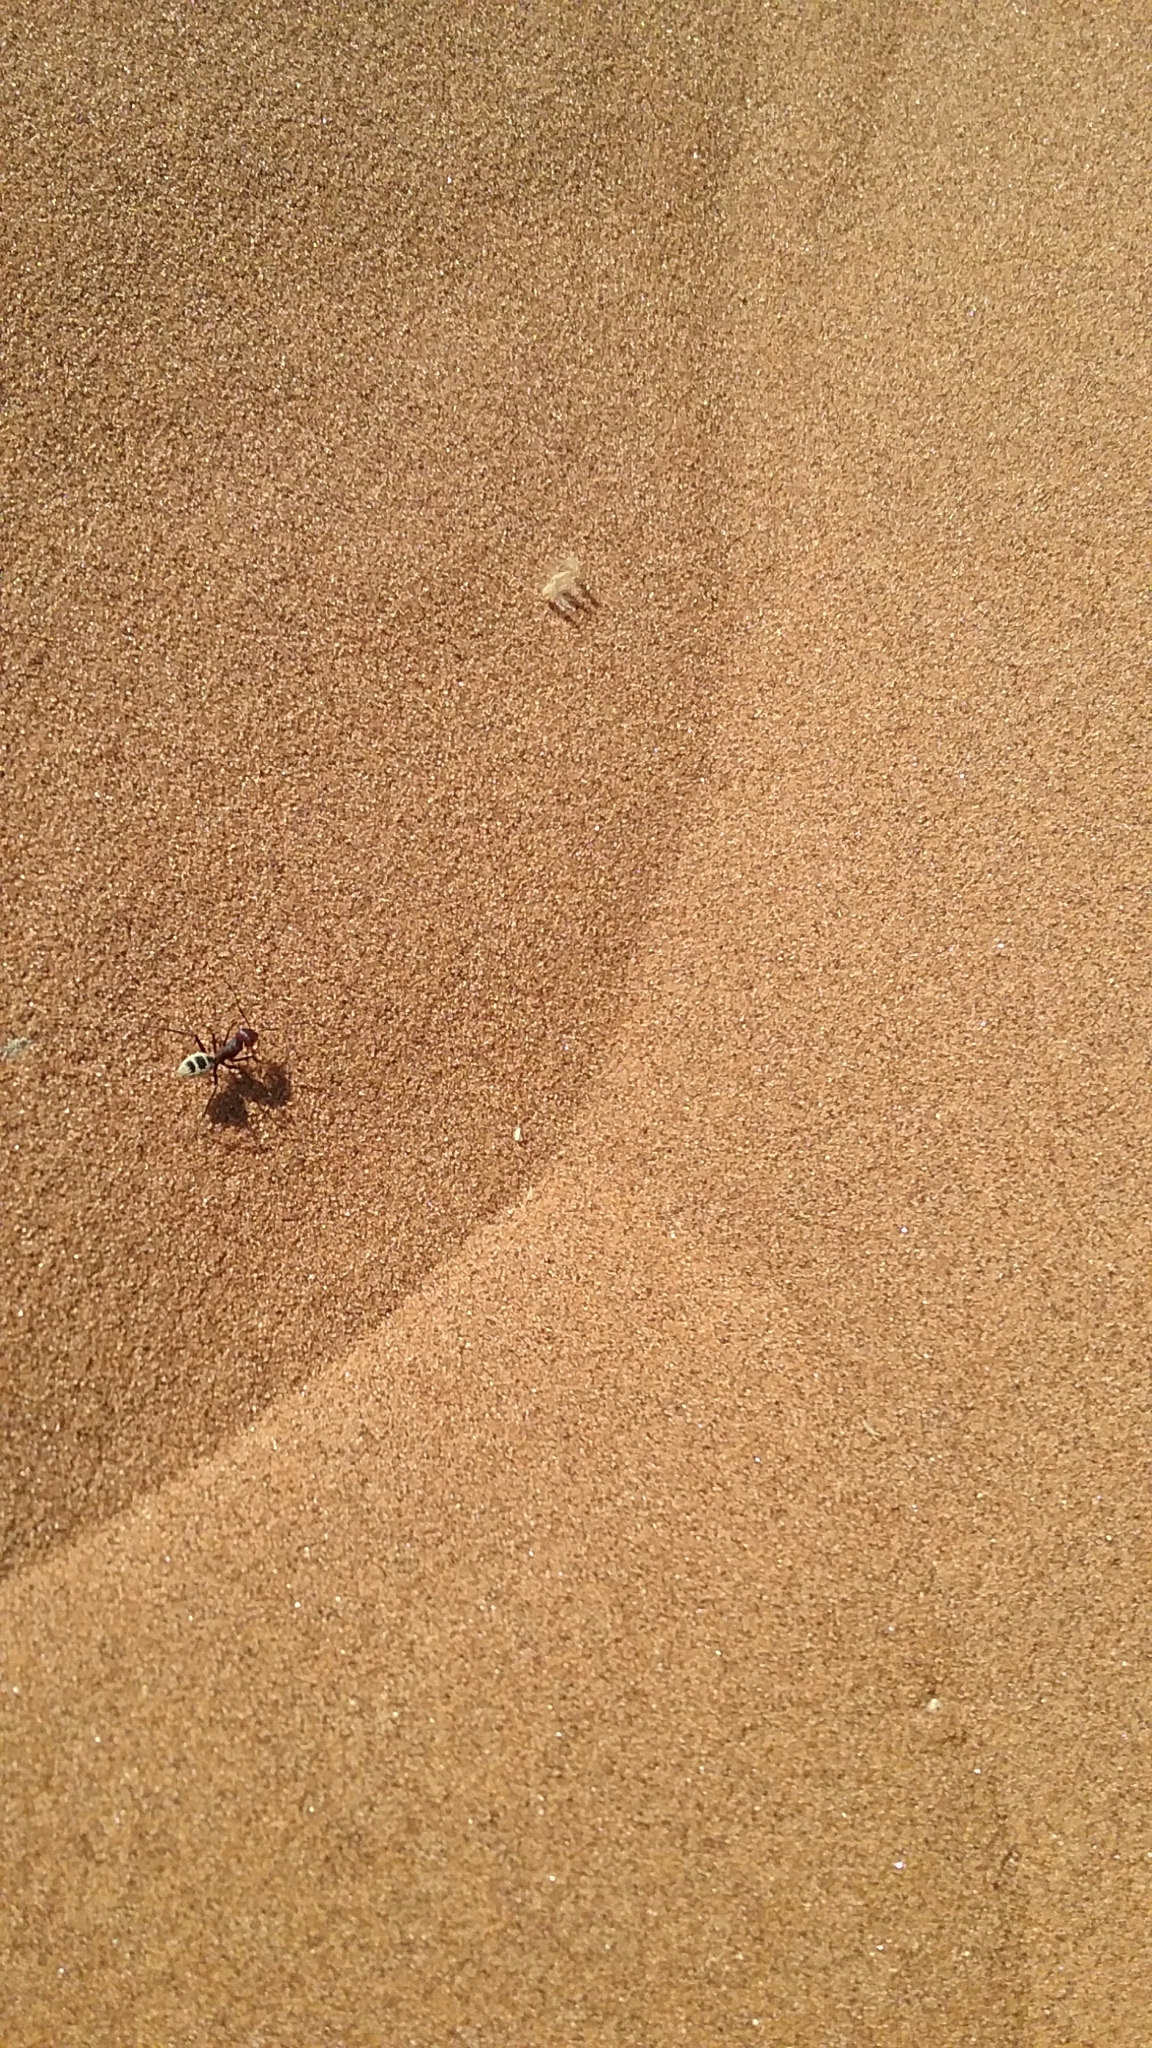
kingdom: Animalia
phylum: Arthropoda
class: Insecta
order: Hymenoptera
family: Formicidae
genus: Camponotus
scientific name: Camponotus detritus
